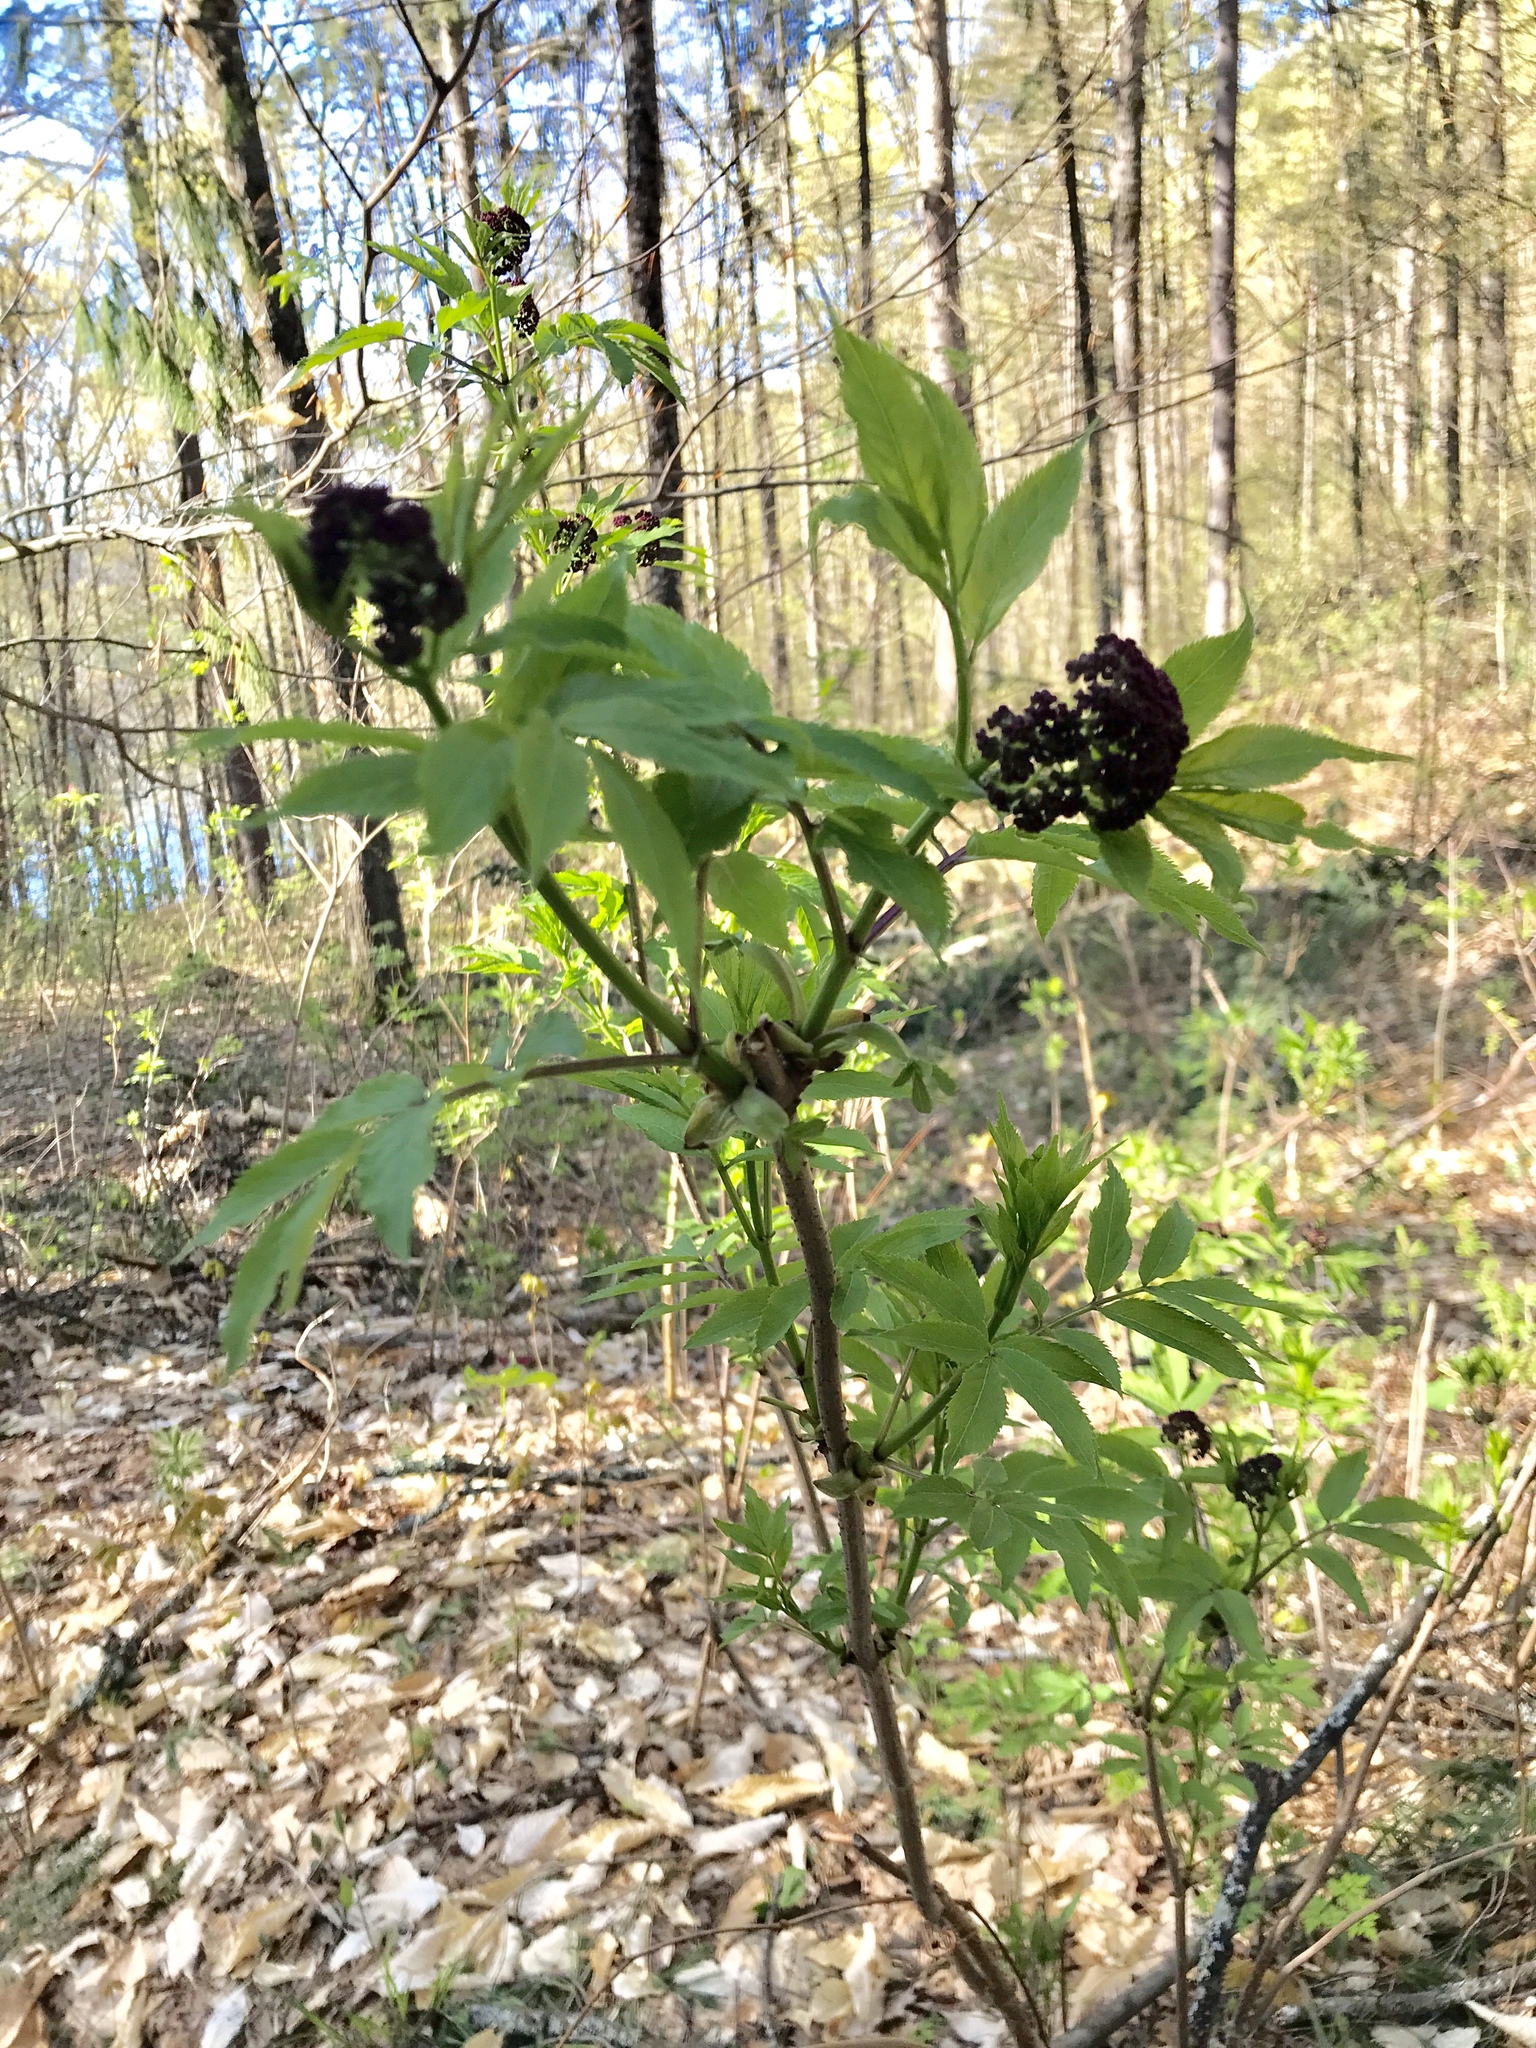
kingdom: Plantae
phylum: Tracheophyta
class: Magnoliopsida
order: Dipsacales
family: Viburnaceae
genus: Sambucus
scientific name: Sambucus racemosa
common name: Red-berried elder
